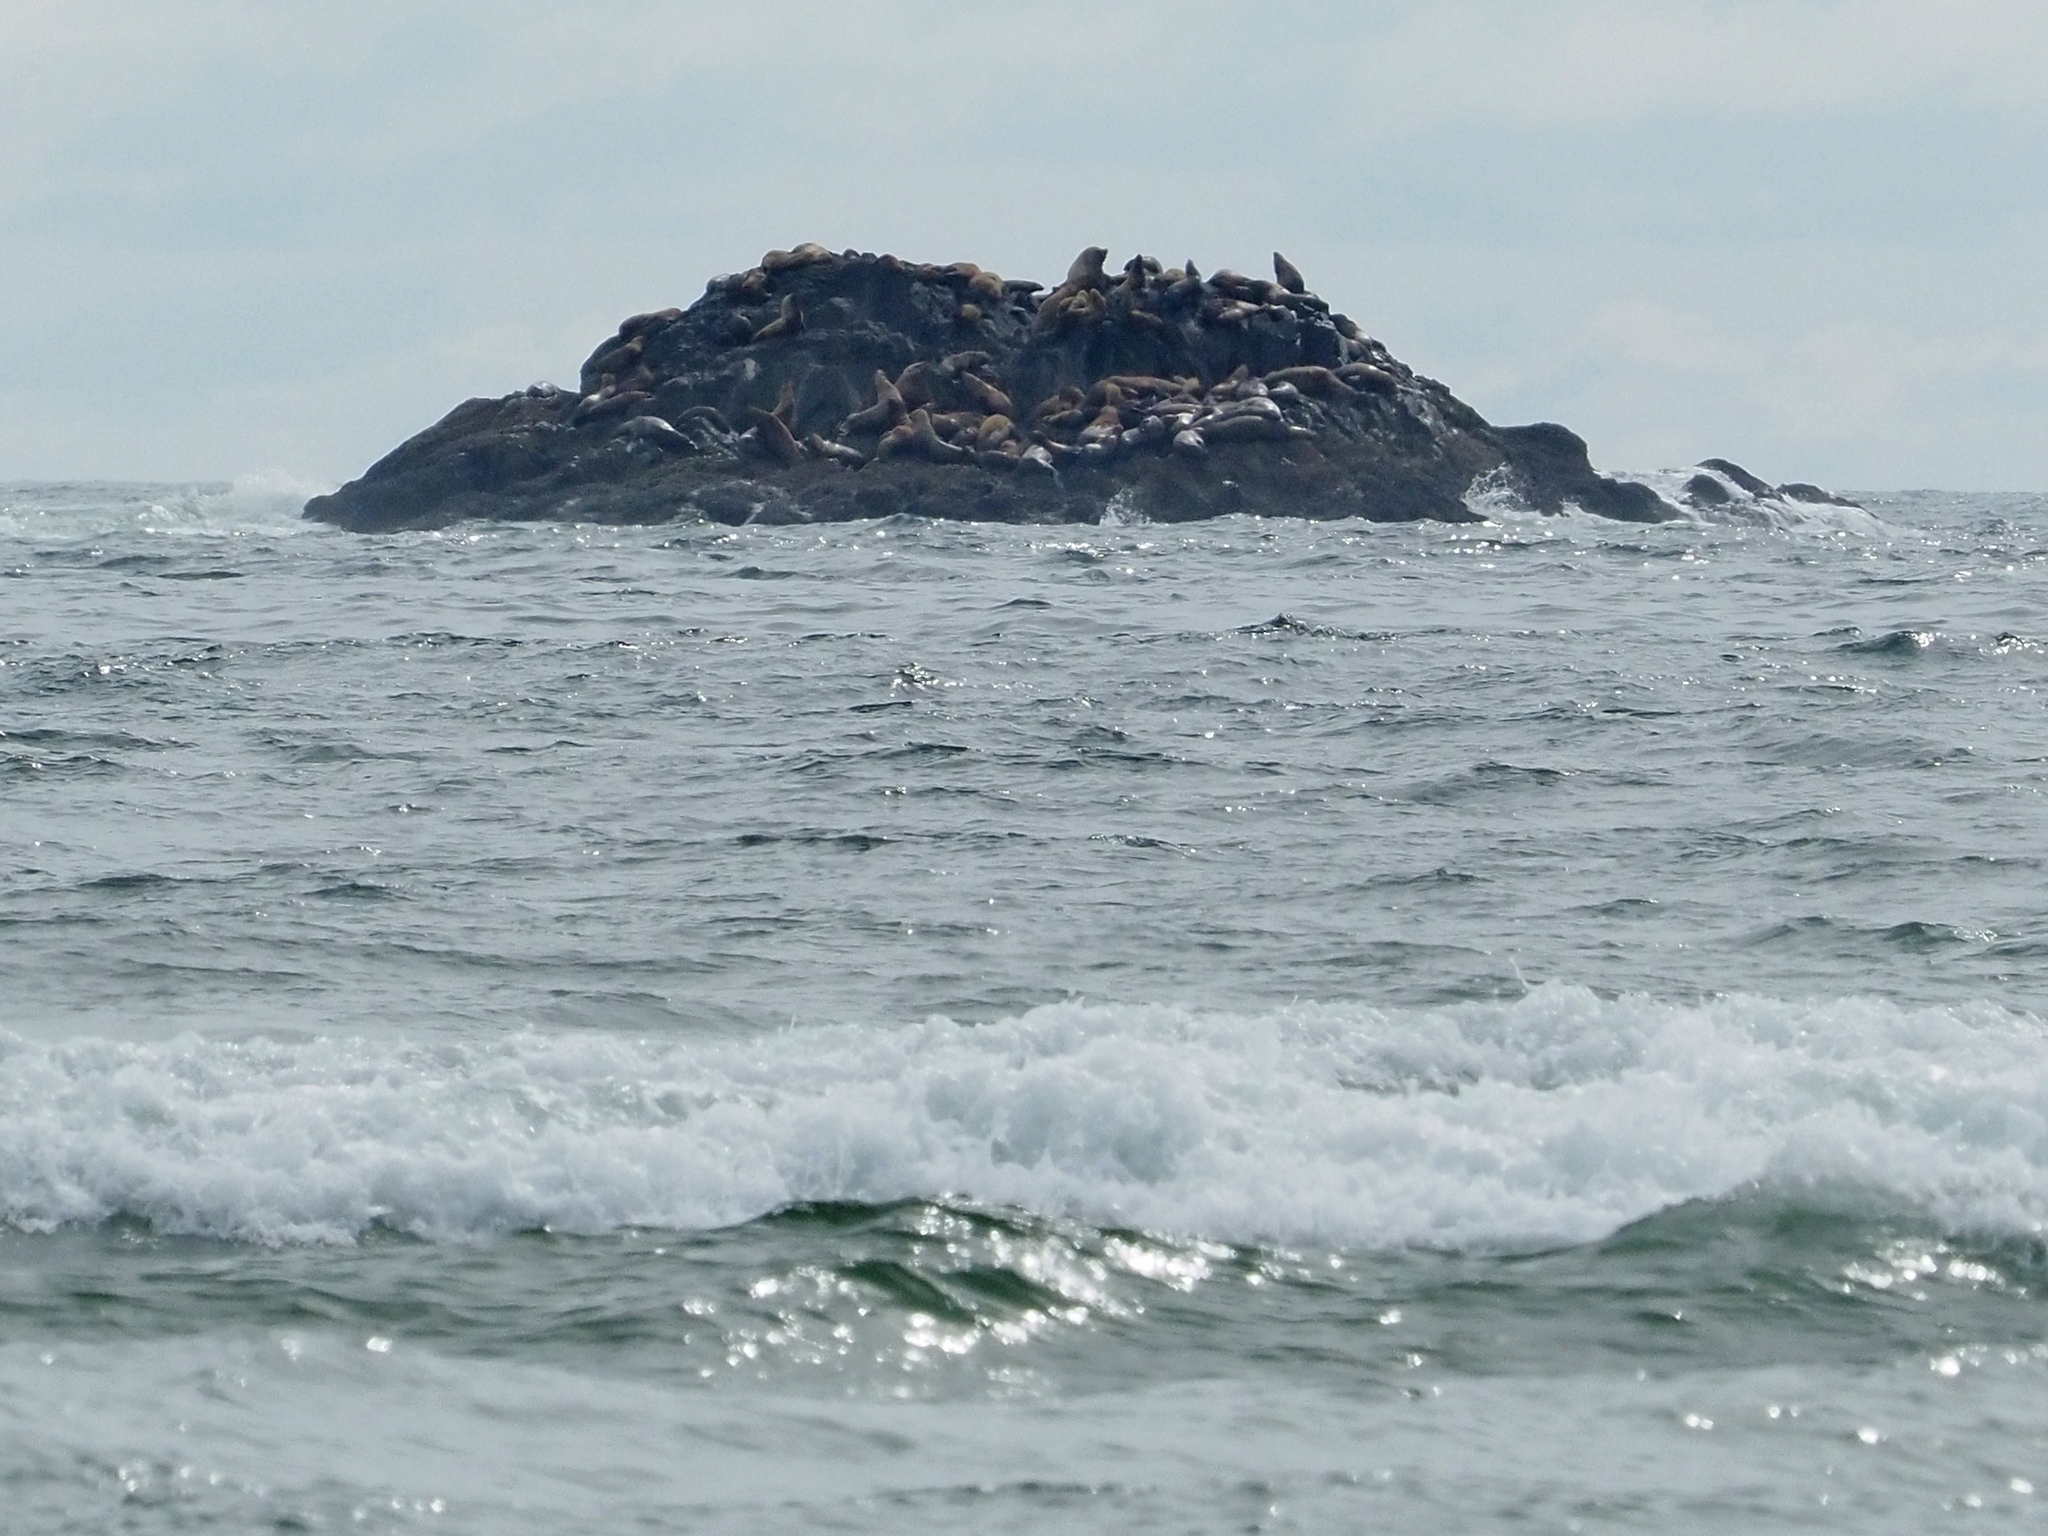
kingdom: Animalia
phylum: Chordata
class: Mammalia
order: Carnivora
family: Otariidae
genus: Eumetopias
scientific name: Eumetopias jubatus
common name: Steller sea lion
